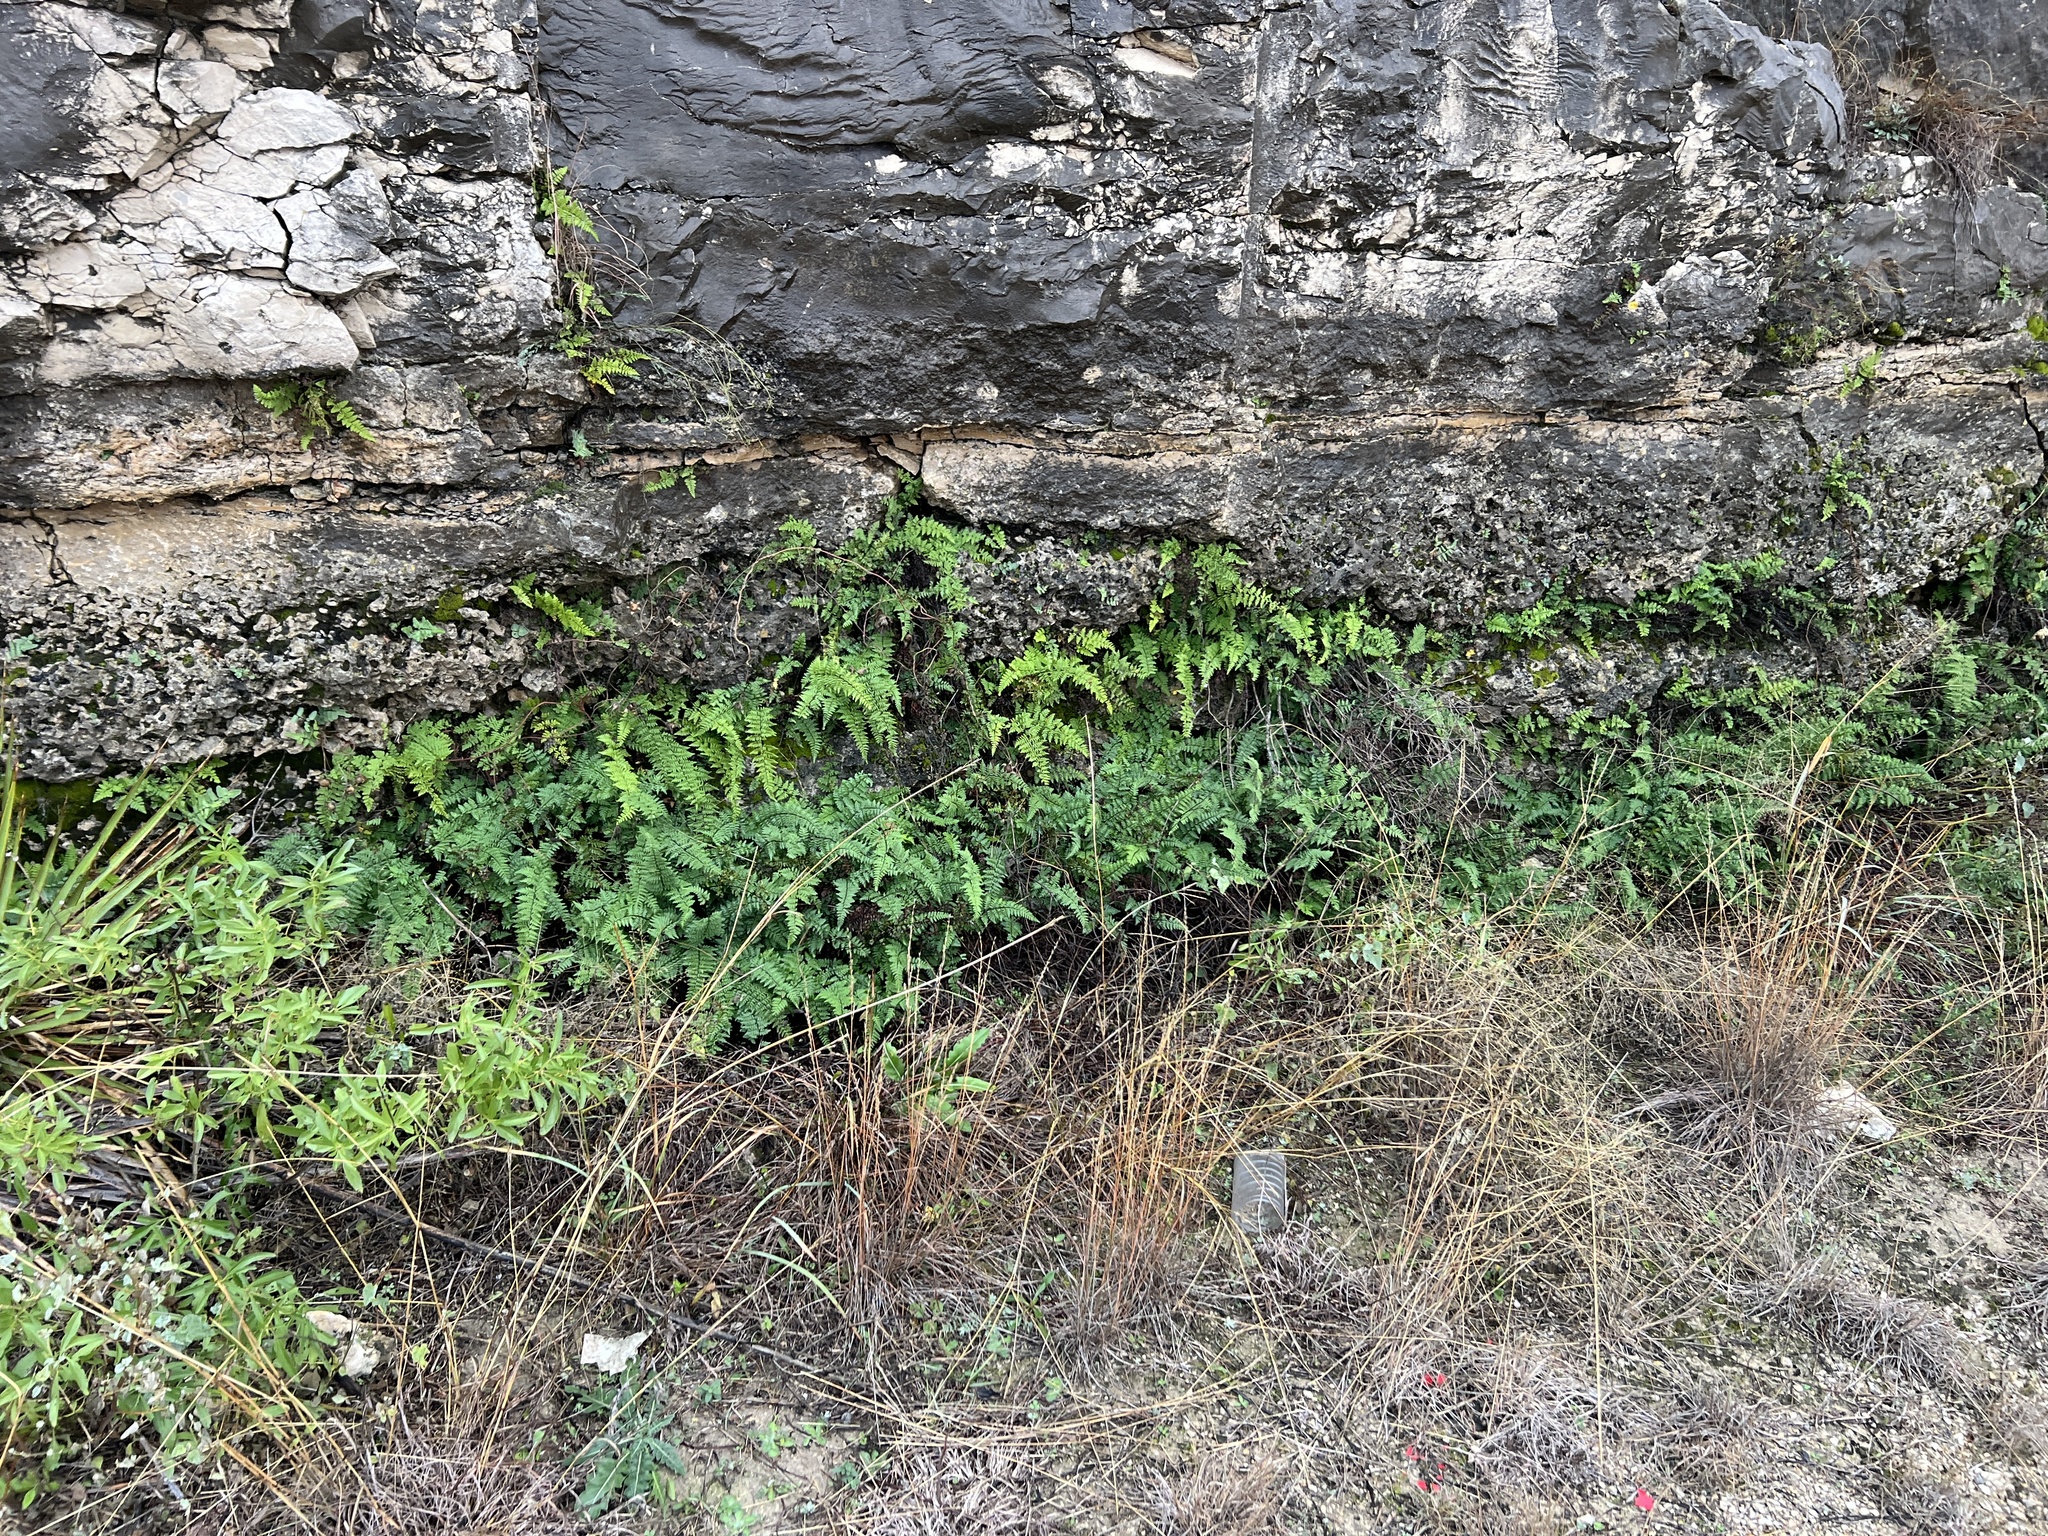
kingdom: Plantae
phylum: Tracheophyta
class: Polypodiopsida
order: Polypodiales
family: Pteridaceae
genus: Myriopteris
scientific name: Myriopteris alabamensis
